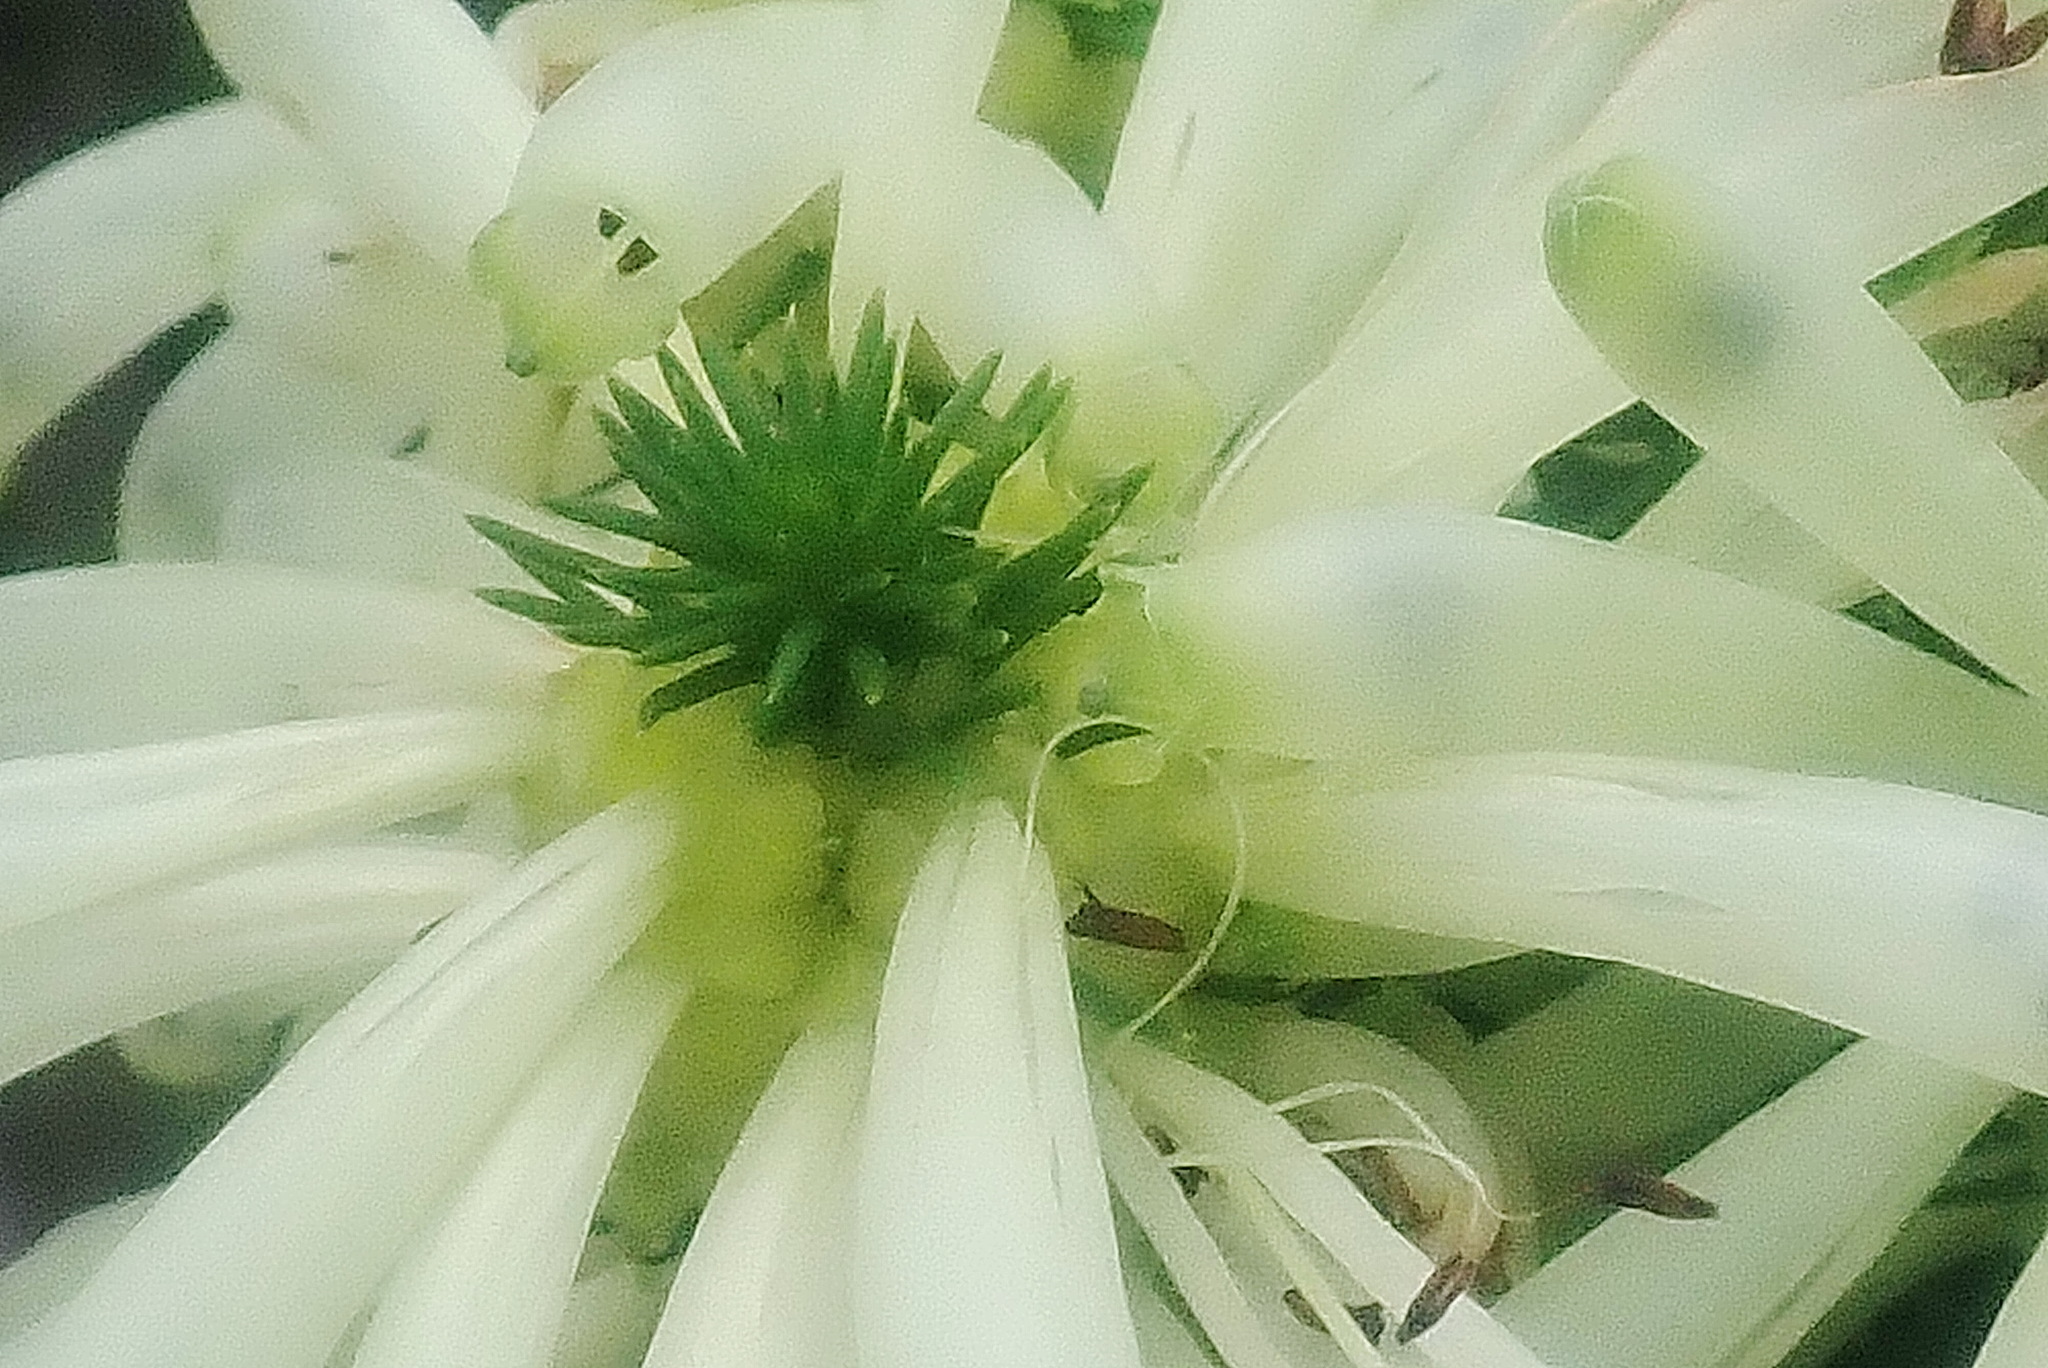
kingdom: Plantae
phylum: Tracheophyta
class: Magnoliopsida
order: Ericales
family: Ericaceae
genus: Erica
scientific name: Erica sessiliflora
